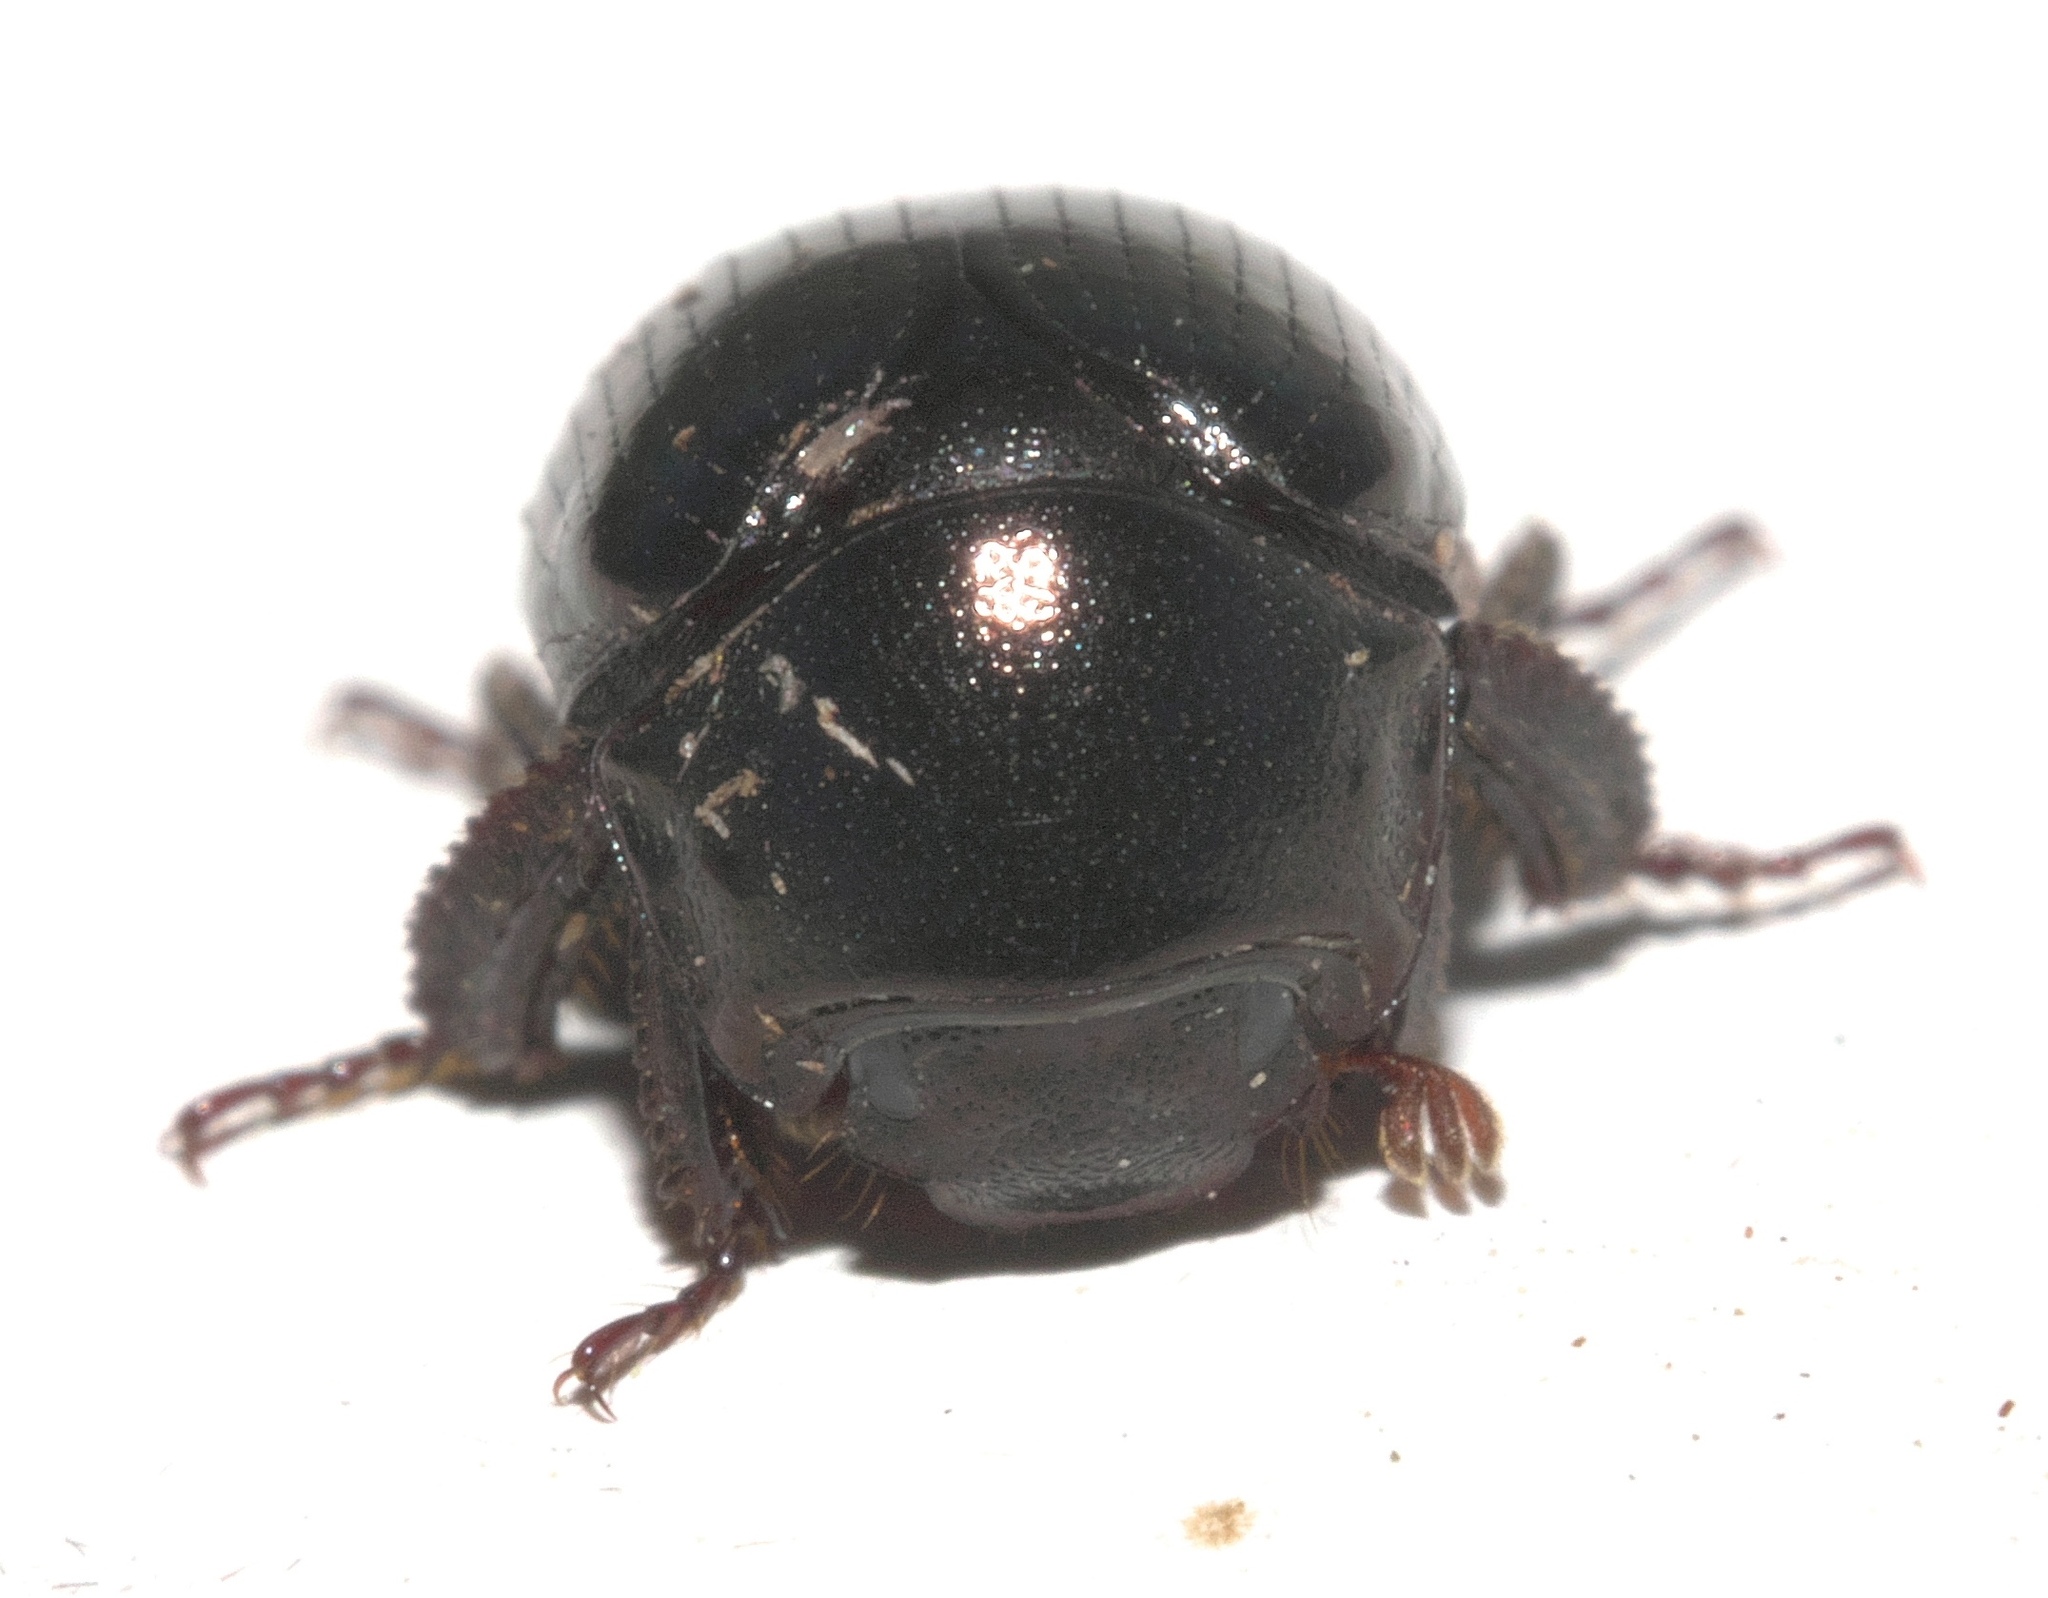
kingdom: Animalia
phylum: Arthropoda
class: Insecta
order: Coleoptera
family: Hybosoridae
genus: Germarostes
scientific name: Germarostes aphodioides
